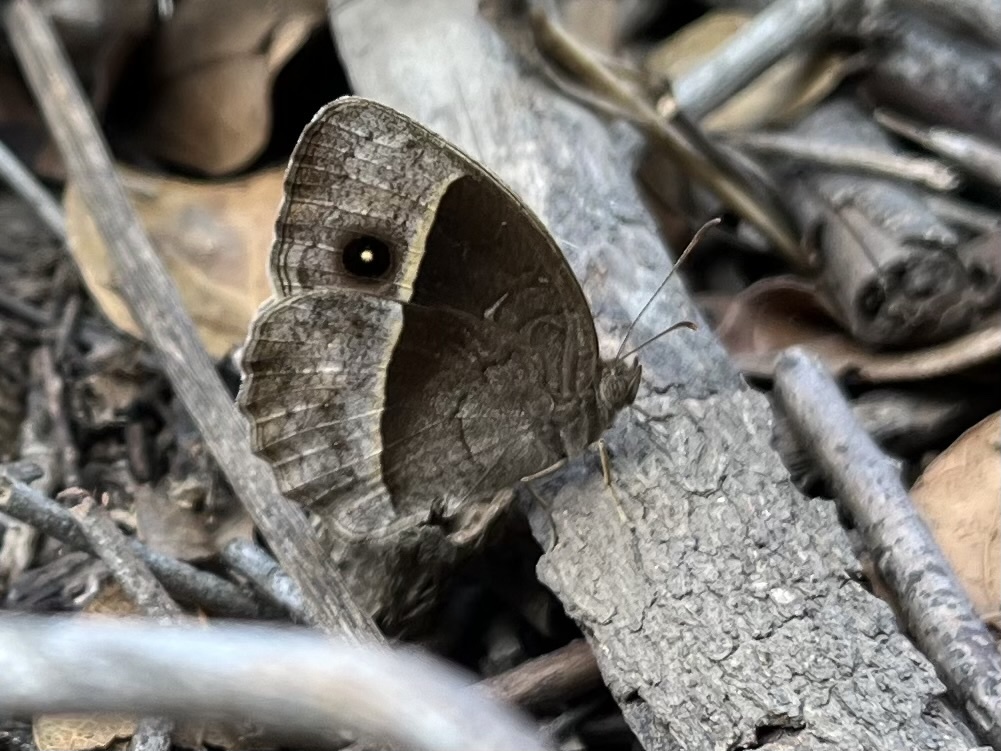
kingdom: Animalia
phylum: Arthropoda
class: Insecta
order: Lepidoptera
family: Nymphalidae
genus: Mycalesis
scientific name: Mycalesis rhacotis
